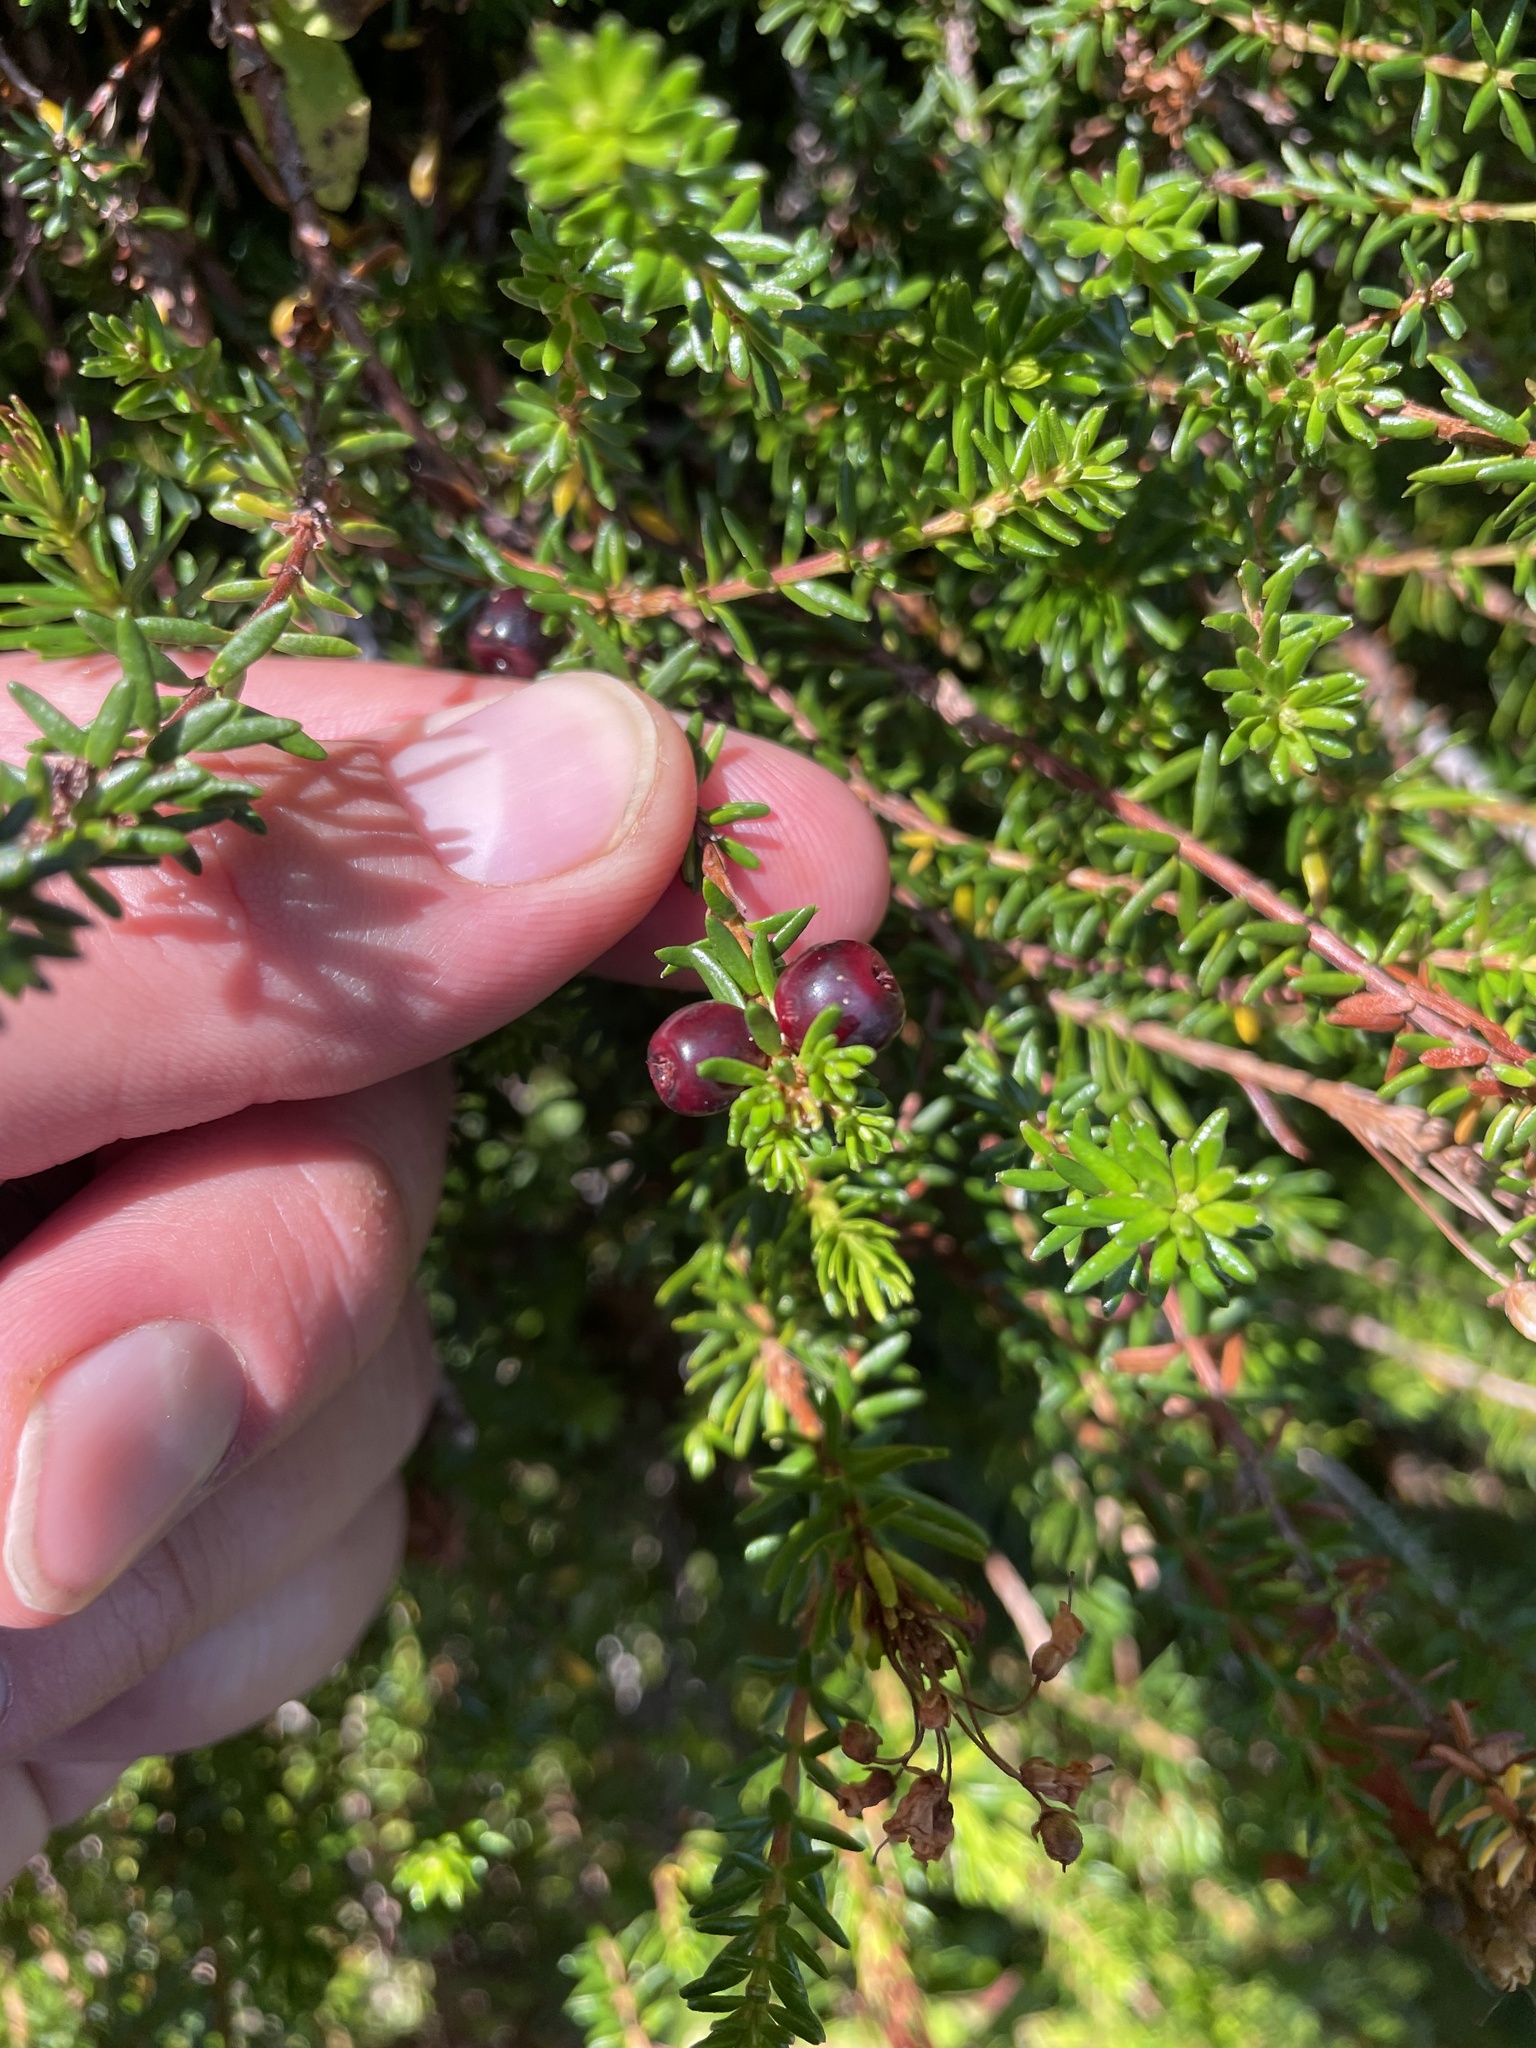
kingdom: Plantae
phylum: Tracheophyta
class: Magnoliopsida
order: Ericales
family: Ericaceae
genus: Empetrum
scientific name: Empetrum nigrum
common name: Black crowberry
